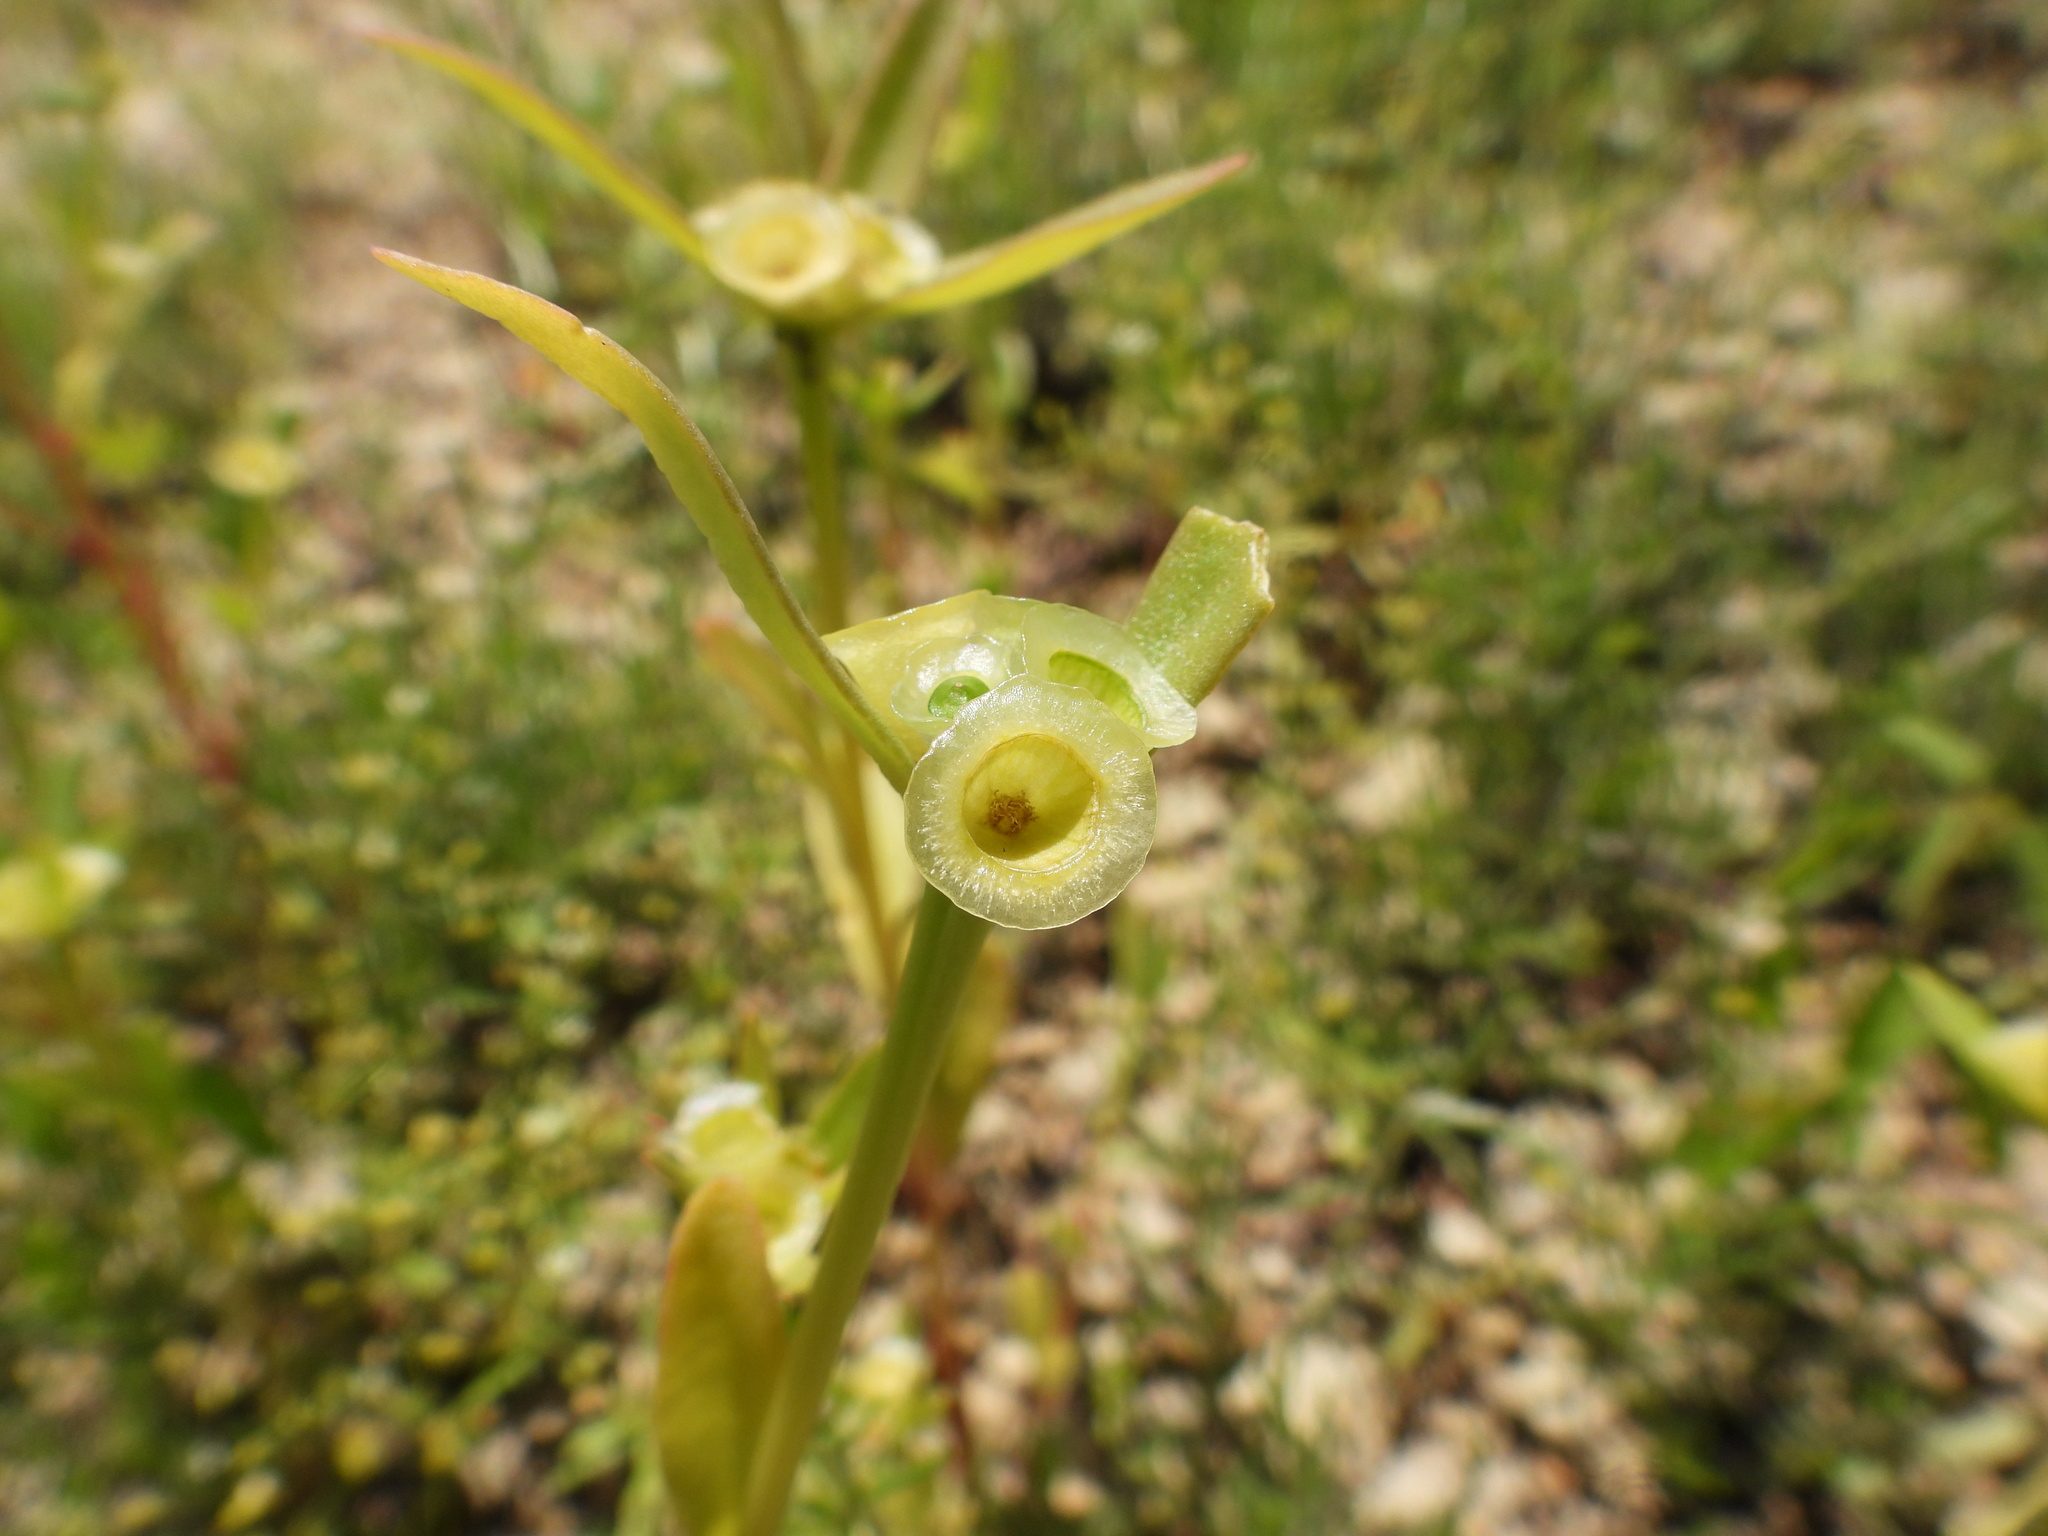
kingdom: Plantae
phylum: Tracheophyta
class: Magnoliopsida
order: Caryophyllales
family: Portulacaceae
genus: Portulaca
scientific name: Portulaca umbraticola
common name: Wingpod purslane
